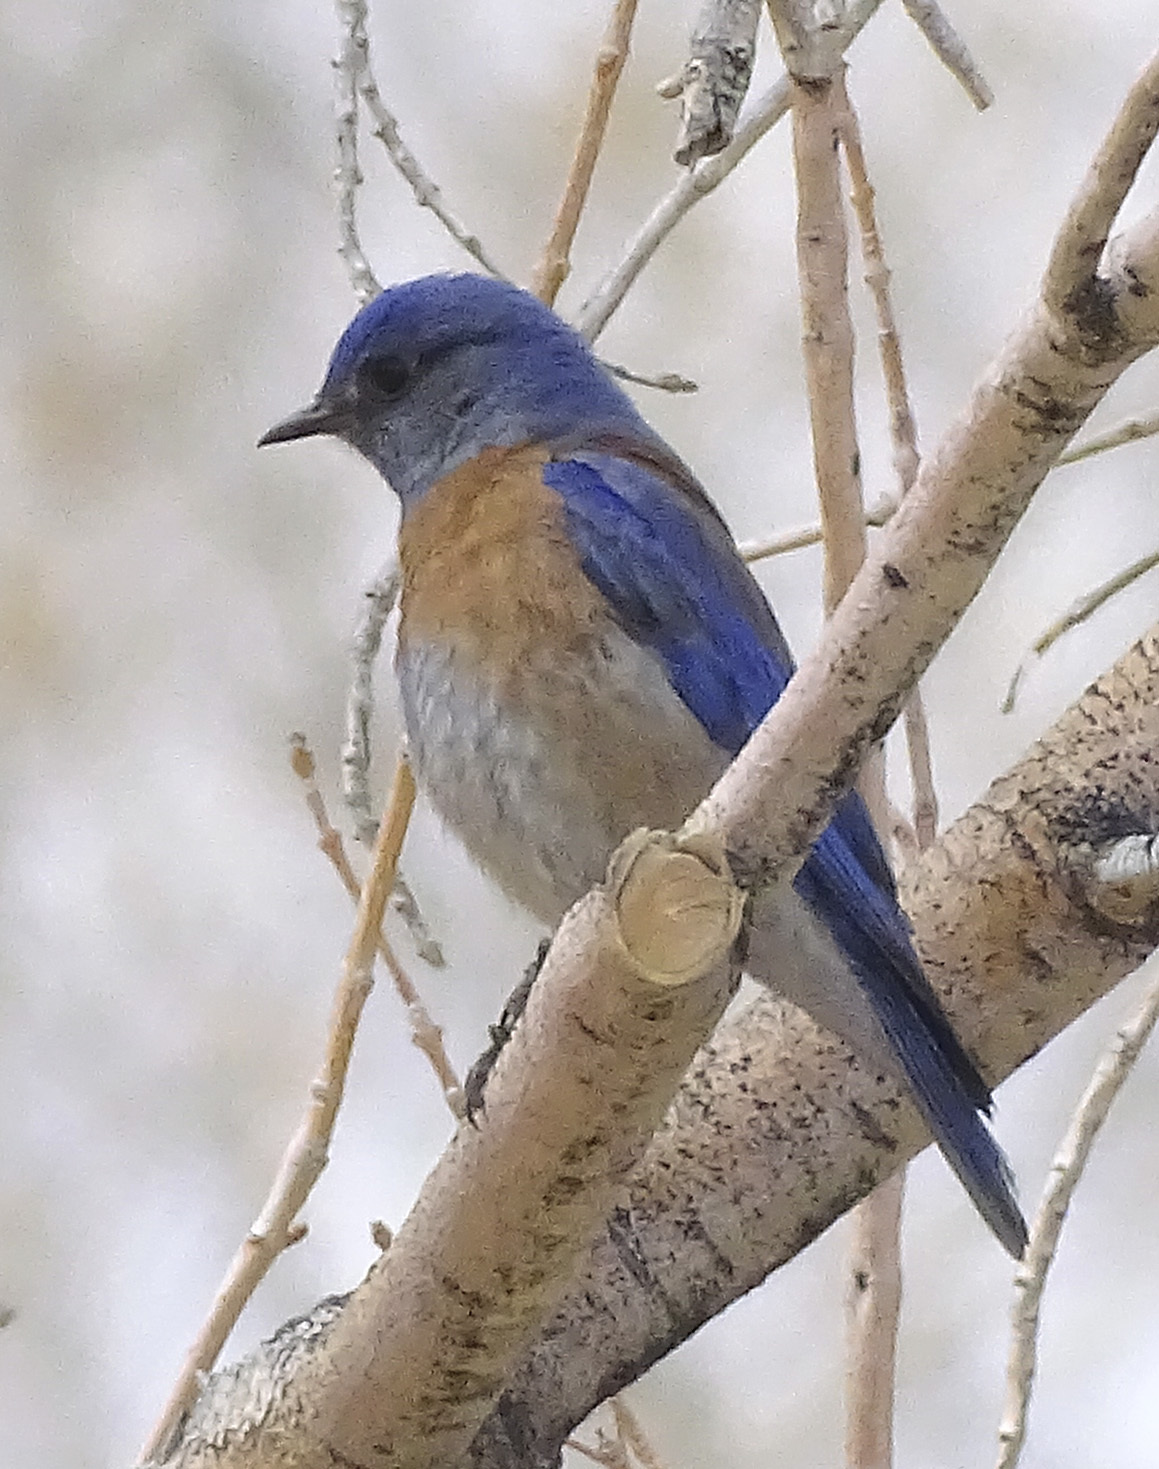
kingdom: Animalia
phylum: Chordata
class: Aves
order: Passeriformes
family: Turdidae
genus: Sialia
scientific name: Sialia mexicana
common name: Western bluebird
